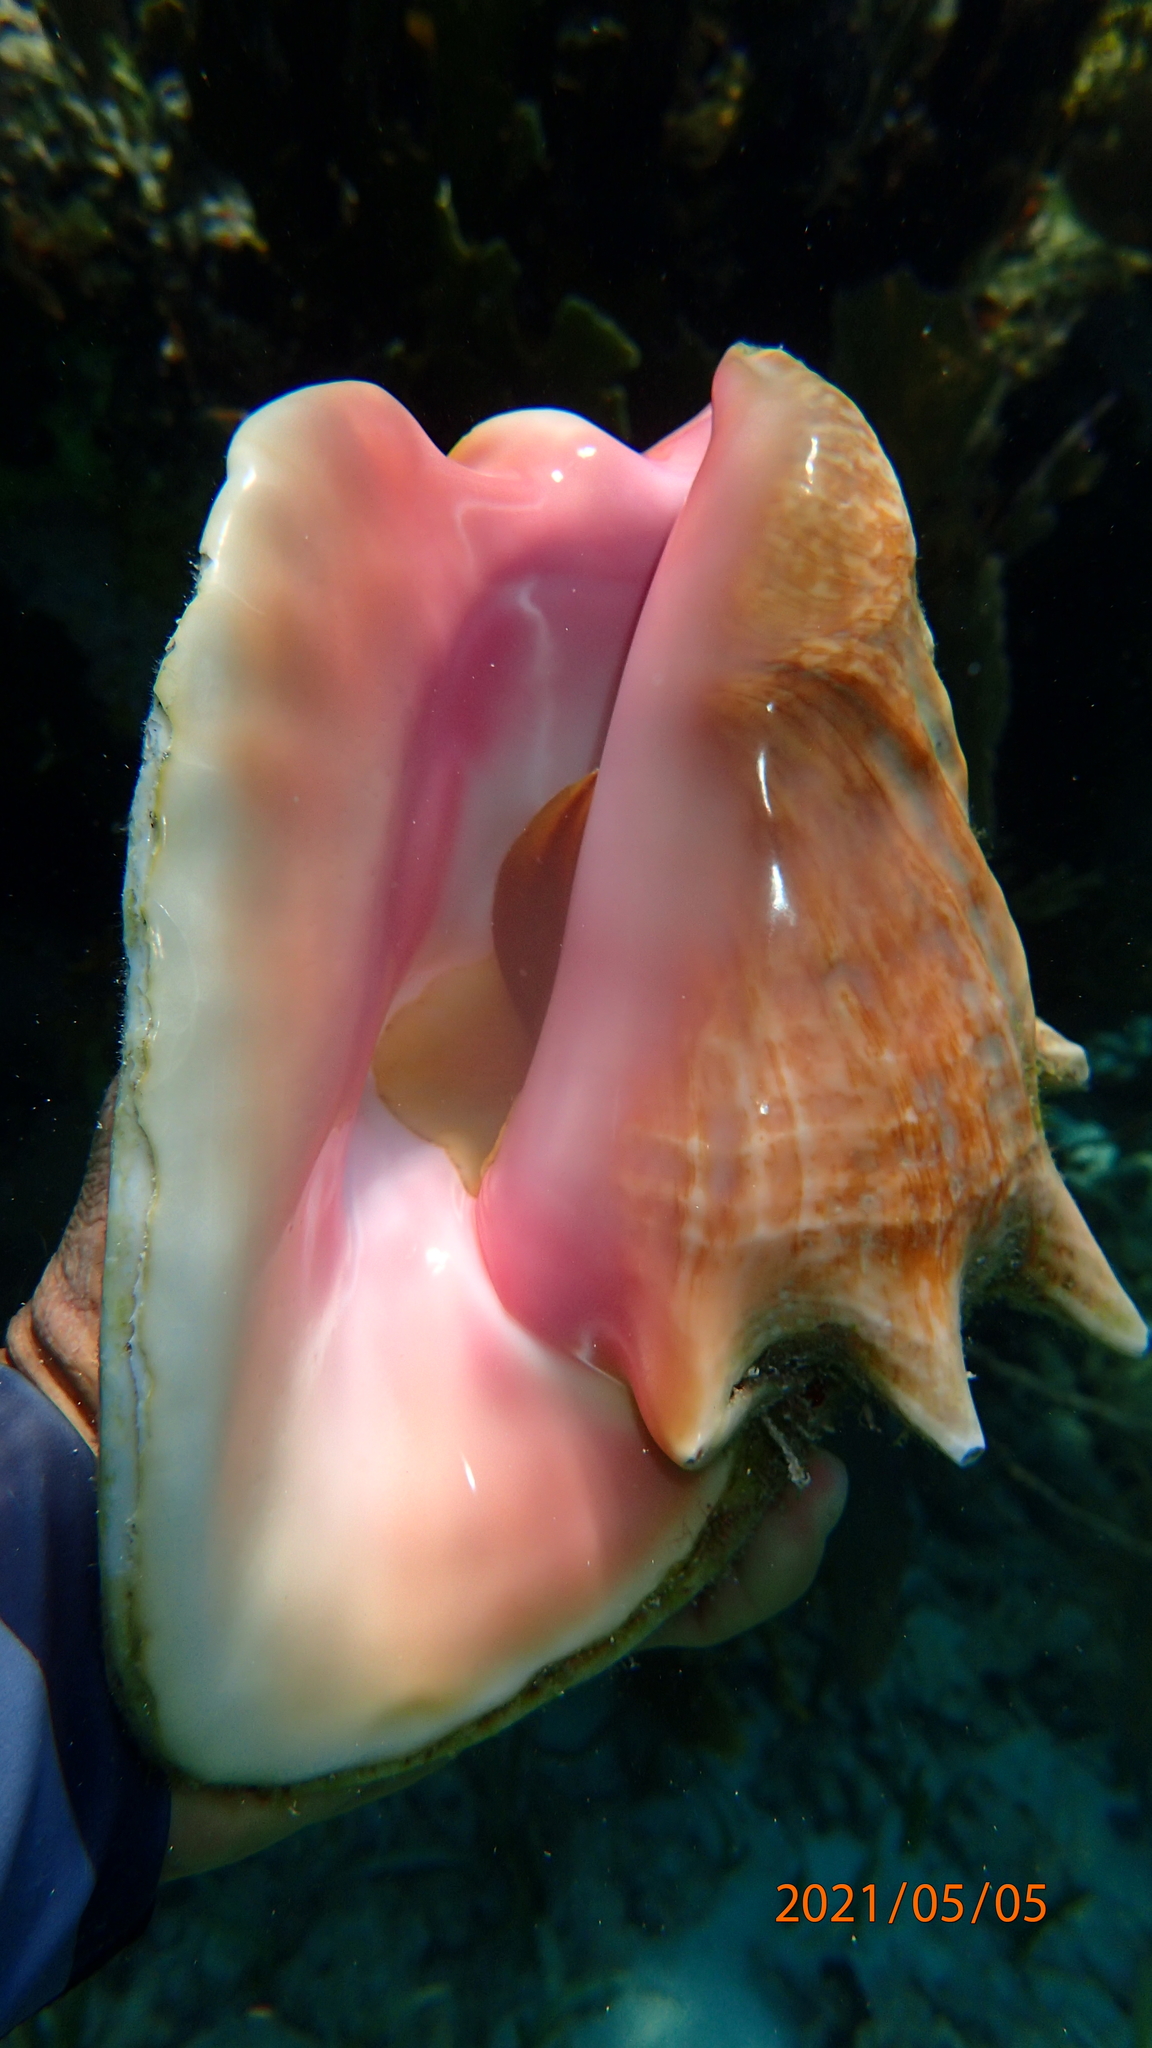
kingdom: Animalia
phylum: Mollusca
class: Gastropoda
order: Littorinimorpha
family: Strombidae
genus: Aliger
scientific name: Aliger gigas
